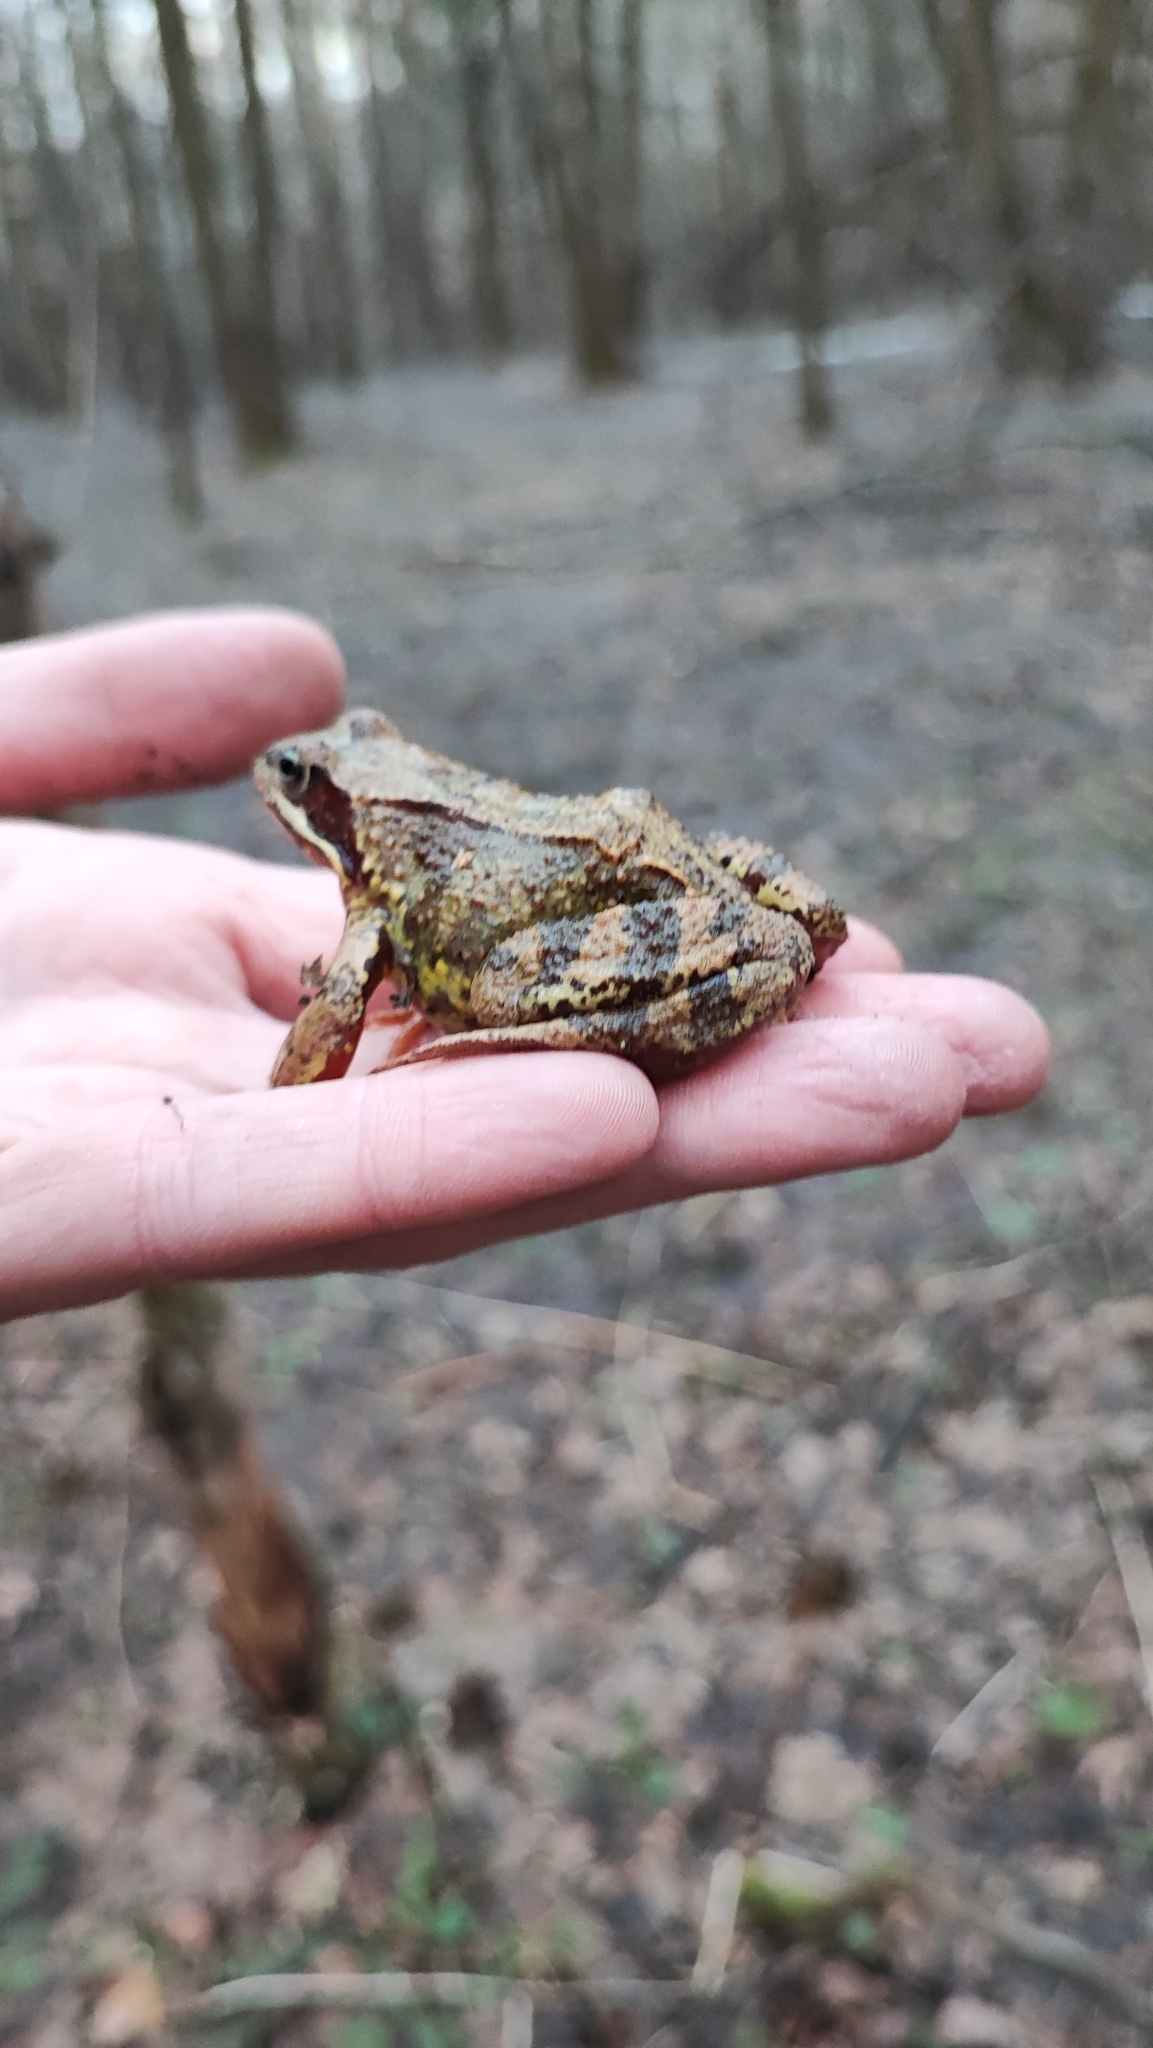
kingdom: Animalia
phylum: Chordata
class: Amphibia
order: Anura
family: Ranidae
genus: Rana
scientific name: Rana temporaria
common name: Common frog
